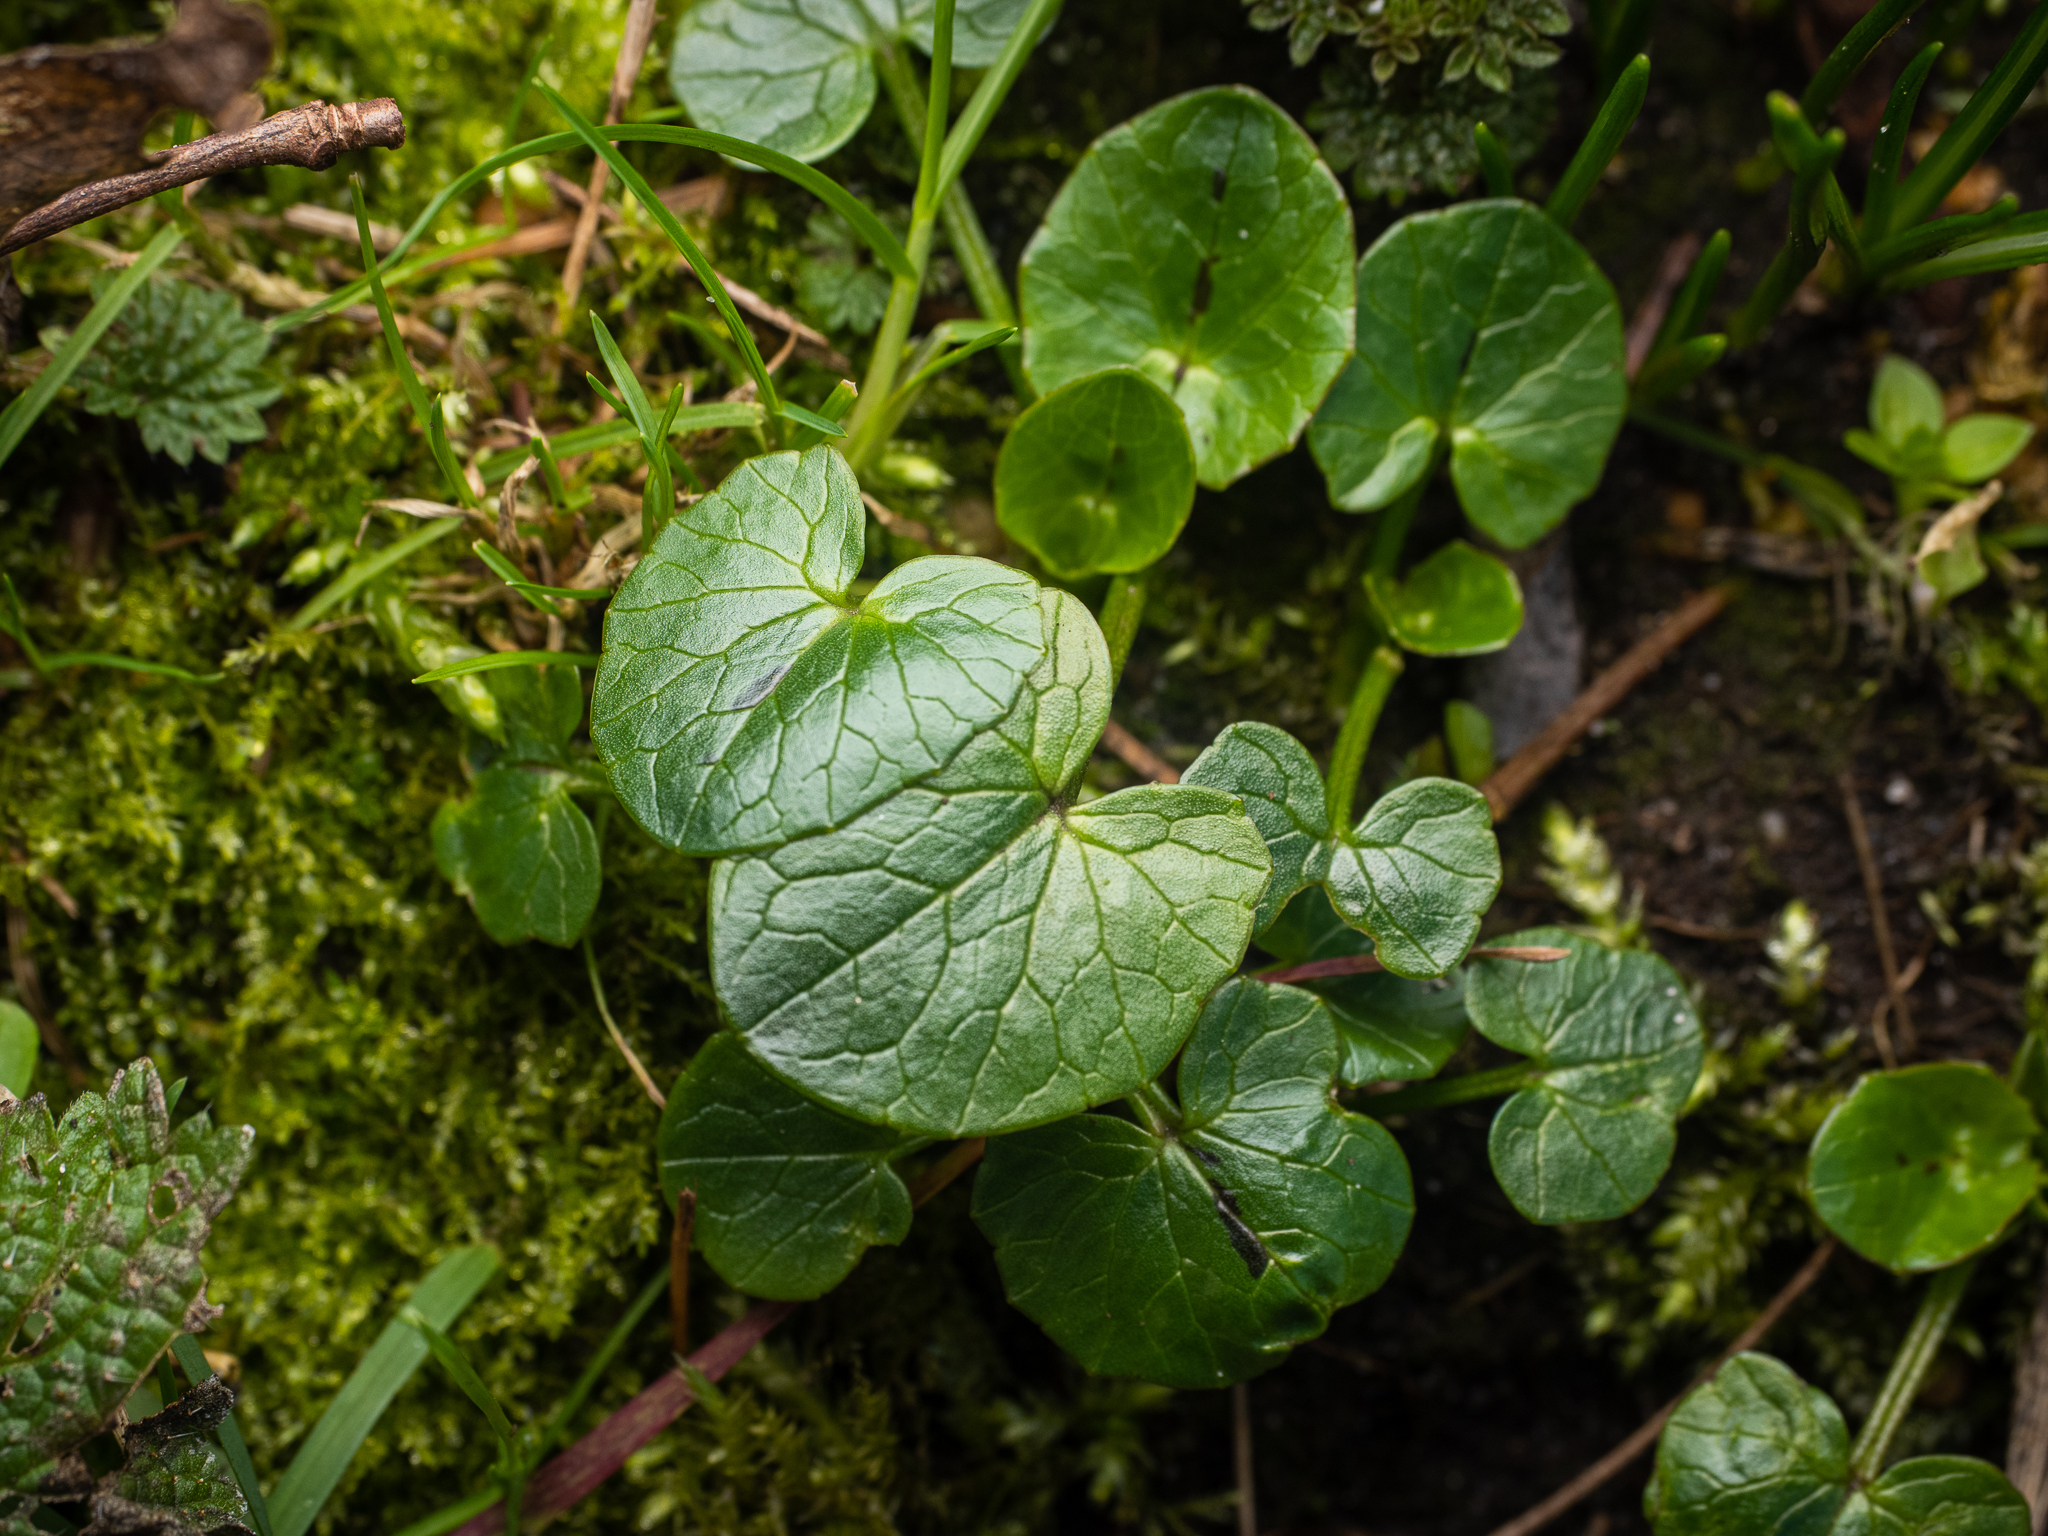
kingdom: Plantae
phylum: Tracheophyta
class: Magnoliopsida
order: Ranunculales
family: Ranunculaceae
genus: Ficaria
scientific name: Ficaria verna
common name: Lesser celandine
